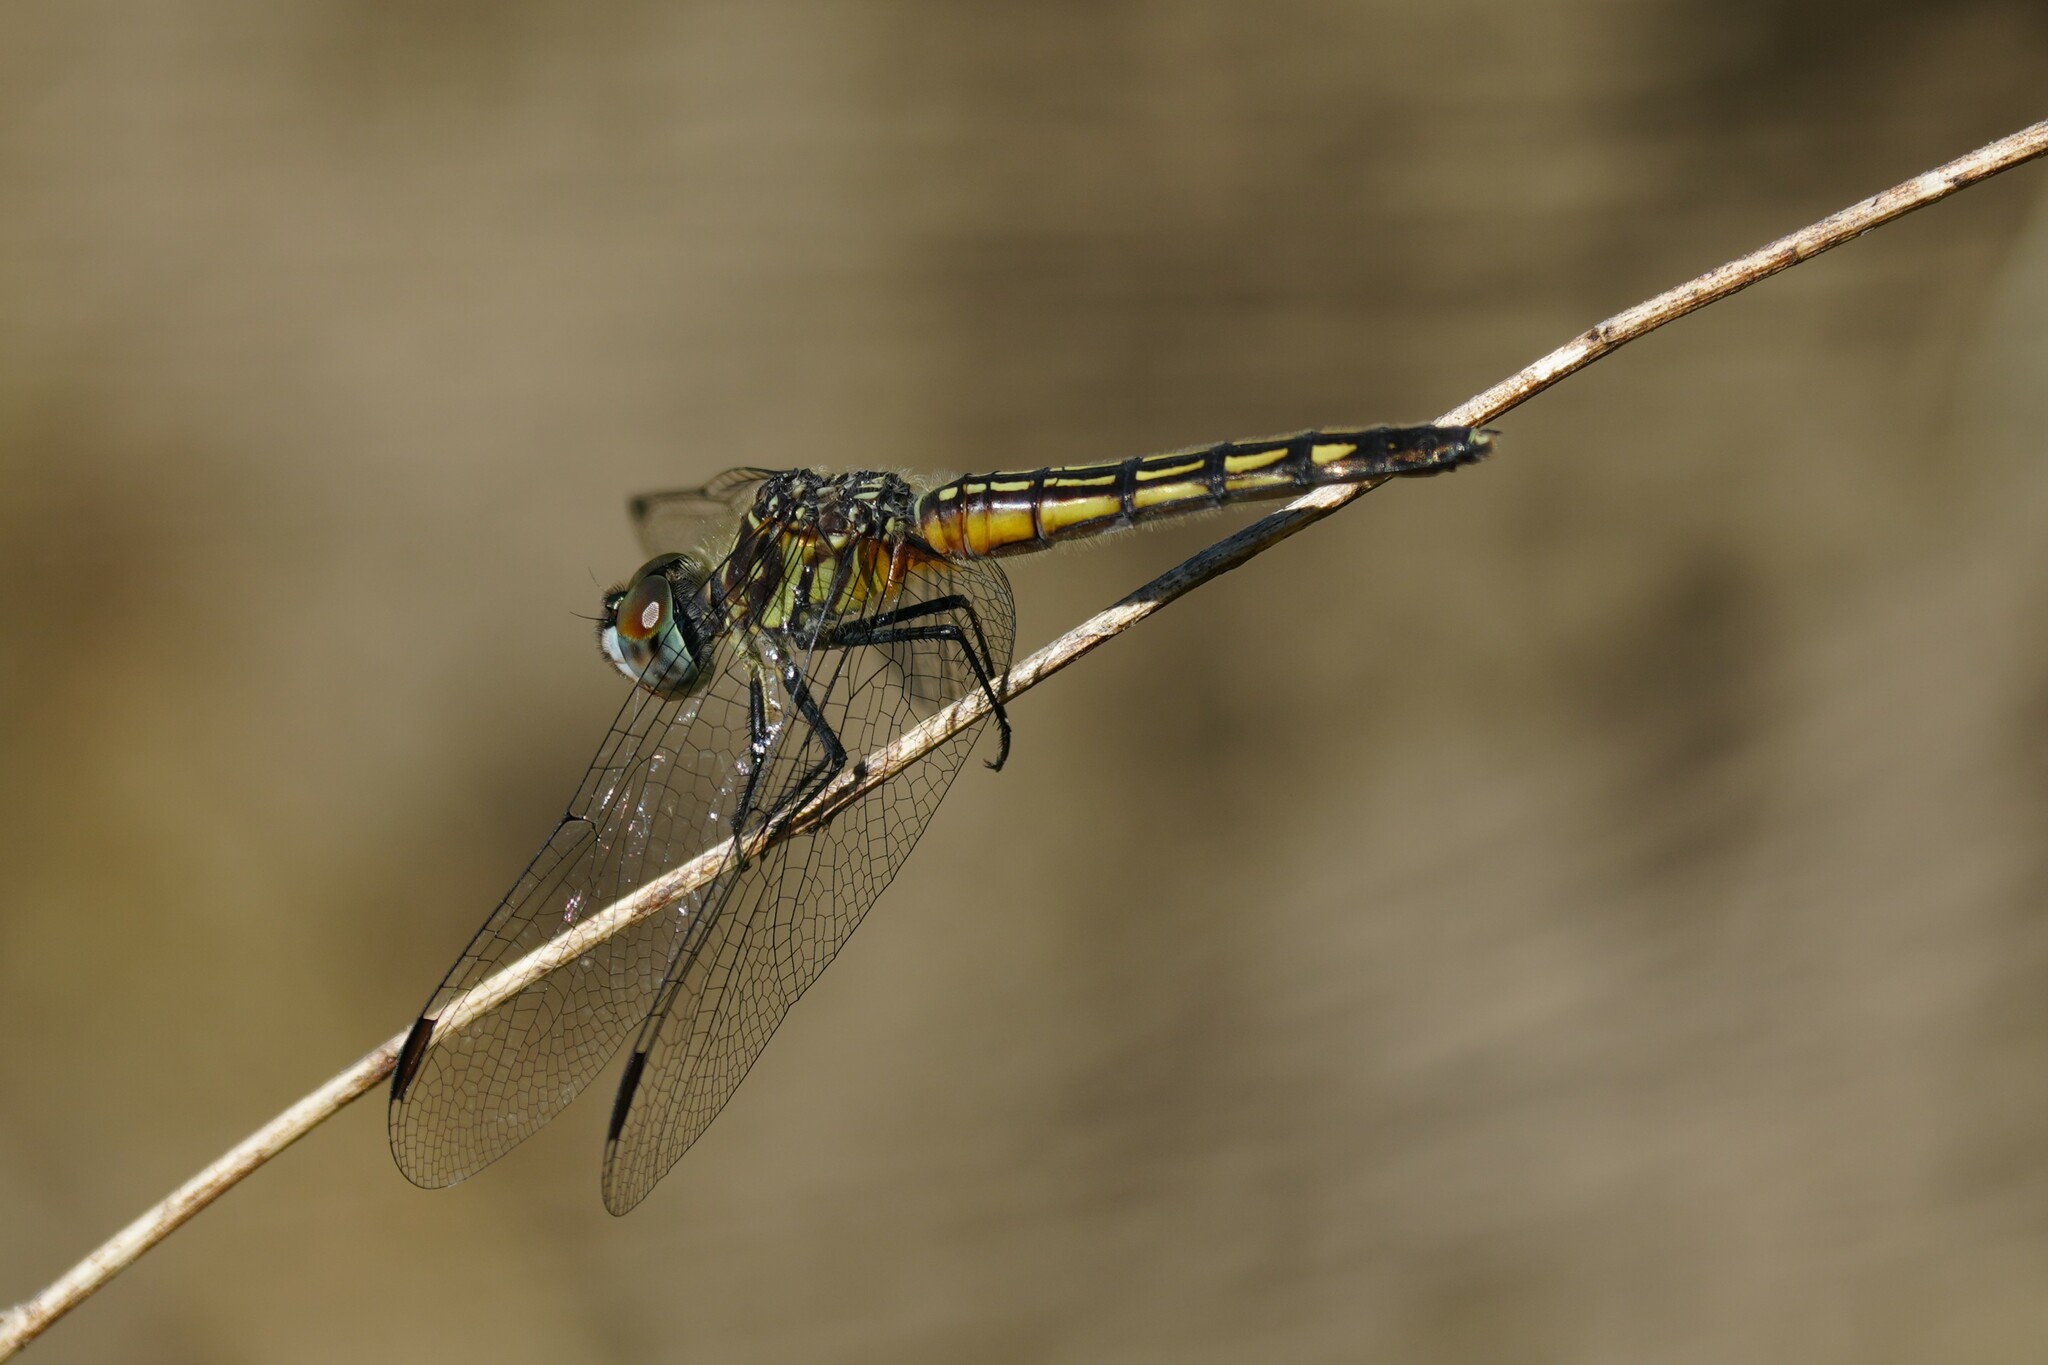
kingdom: Animalia
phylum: Arthropoda
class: Insecta
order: Odonata
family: Libellulidae
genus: Pachydiplax
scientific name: Pachydiplax longipennis
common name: Blue dasher
